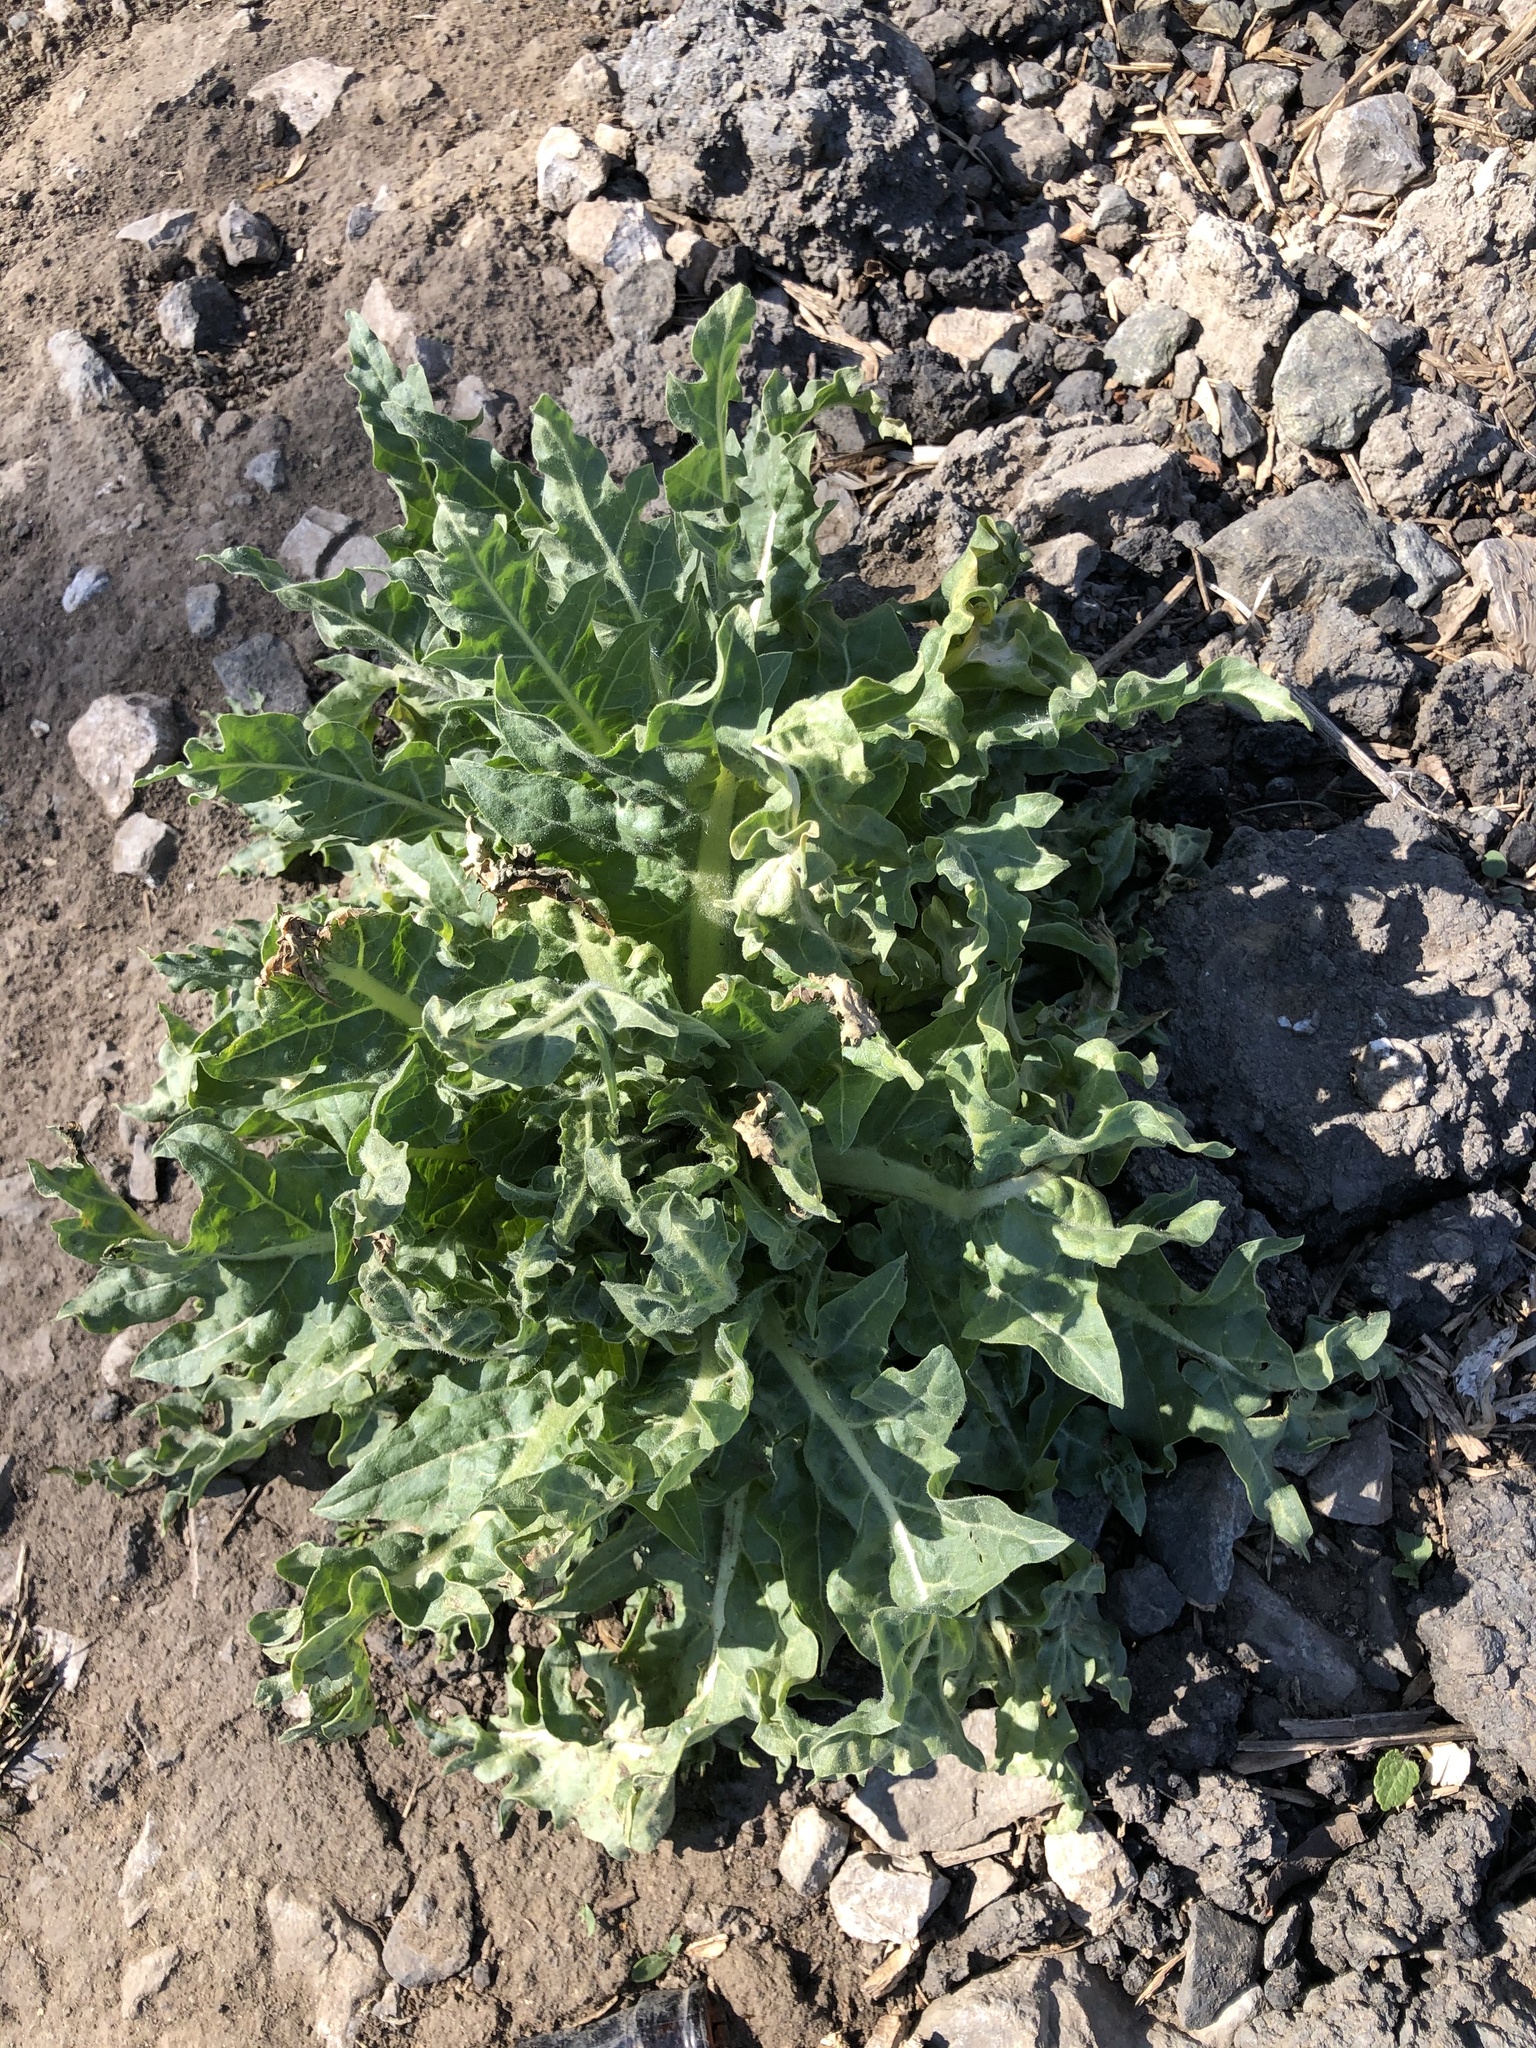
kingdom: Plantae
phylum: Tracheophyta
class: Magnoliopsida
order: Solanales
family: Solanaceae
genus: Hyoscyamus
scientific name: Hyoscyamus niger
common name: Henbane
